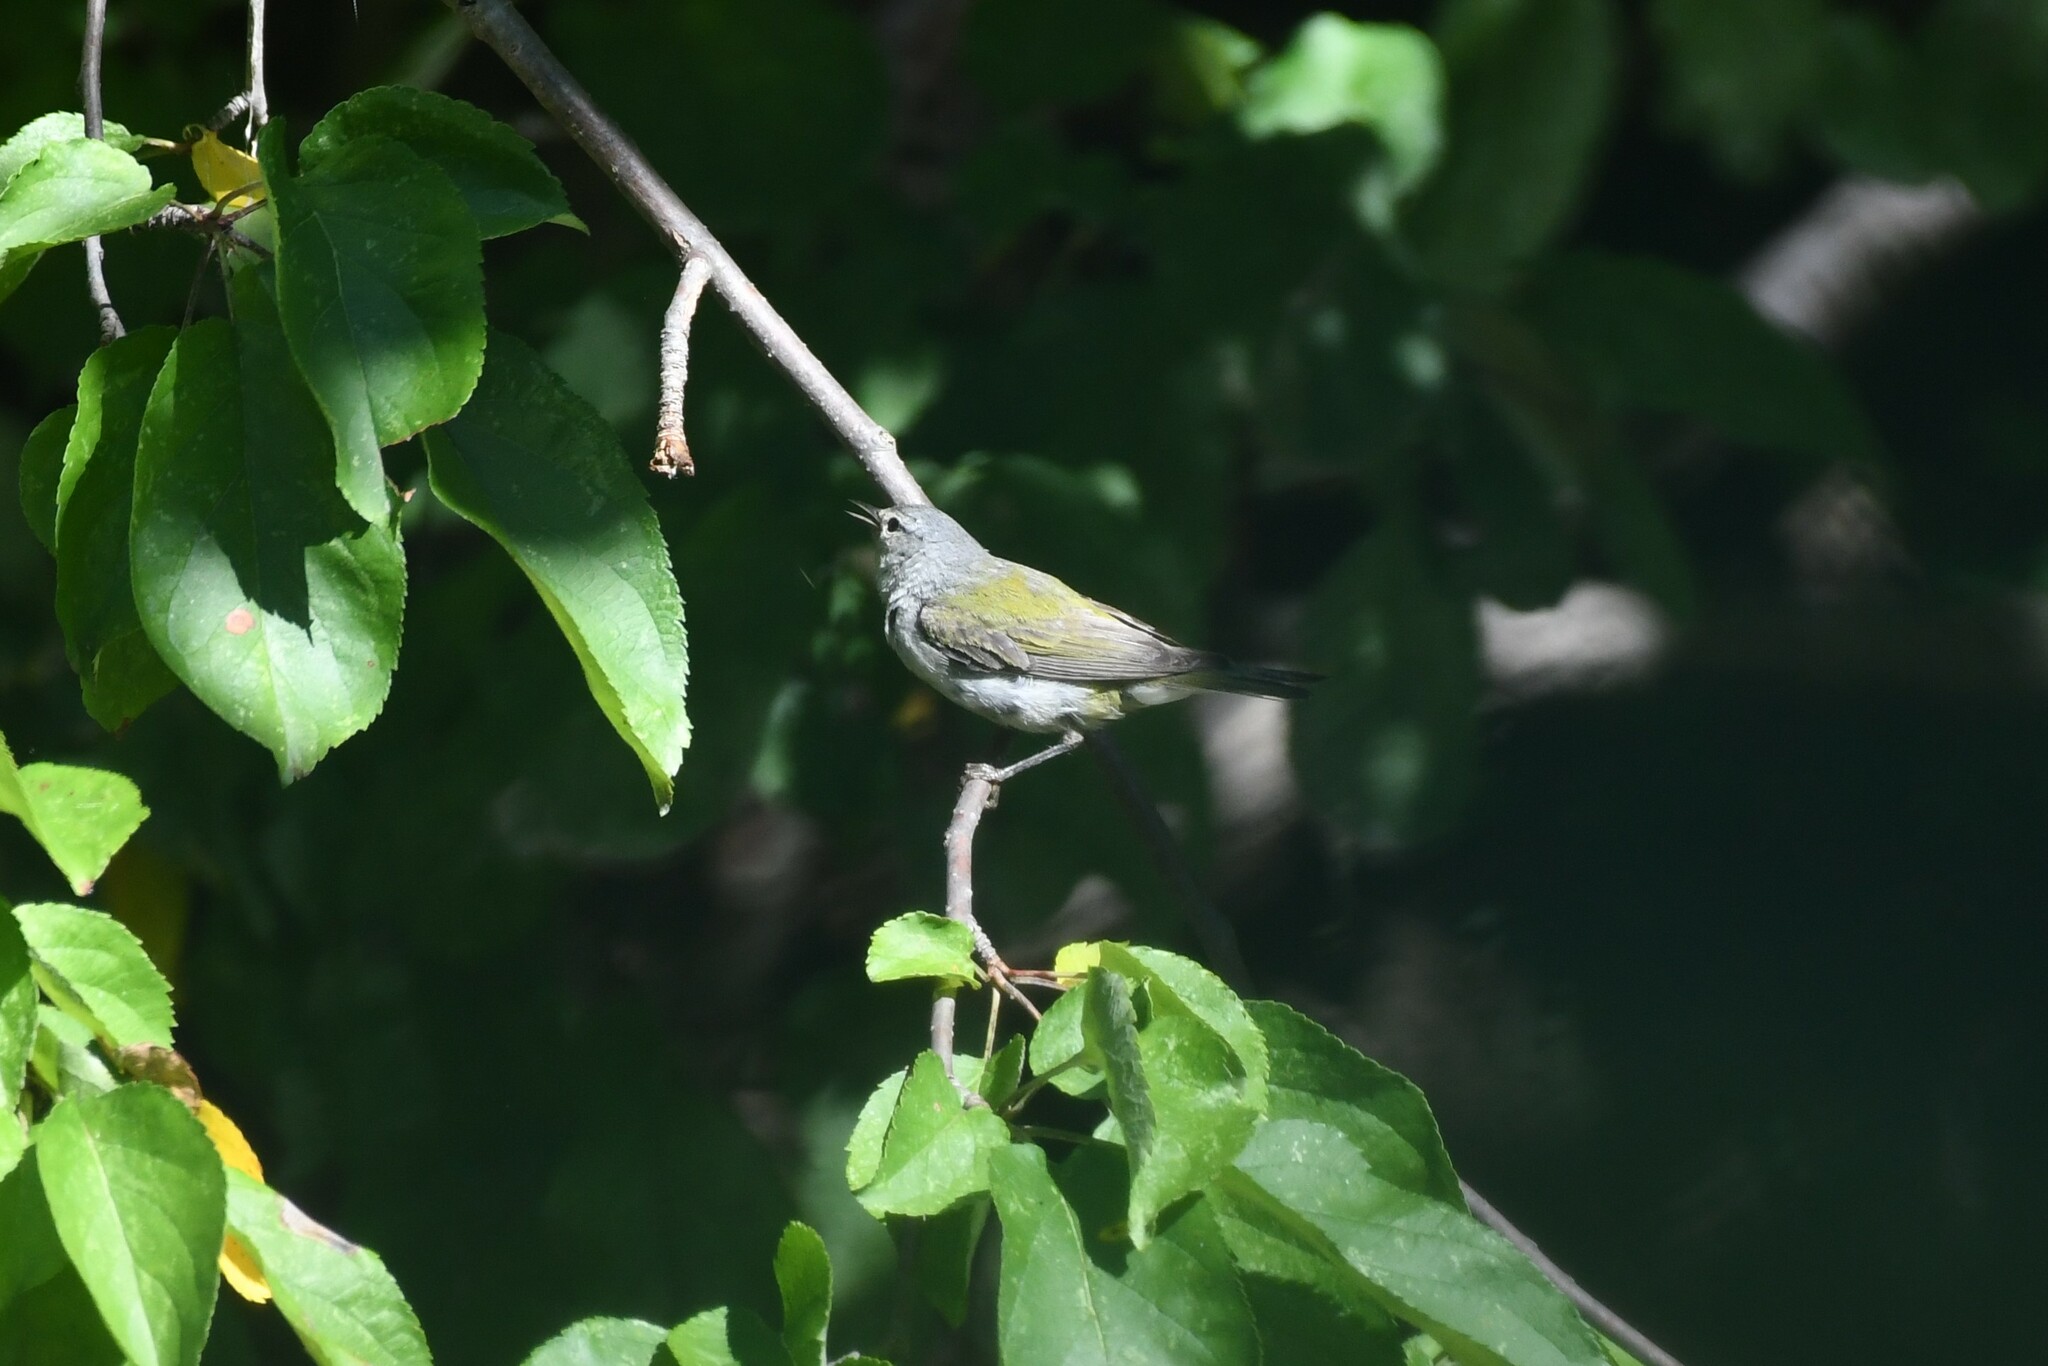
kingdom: Animalia
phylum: Chordata
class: Aves
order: Passeriformes
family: Parulidae
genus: Leiothlypis
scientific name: Leiothlypis peregrina
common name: Tennessee warbler
